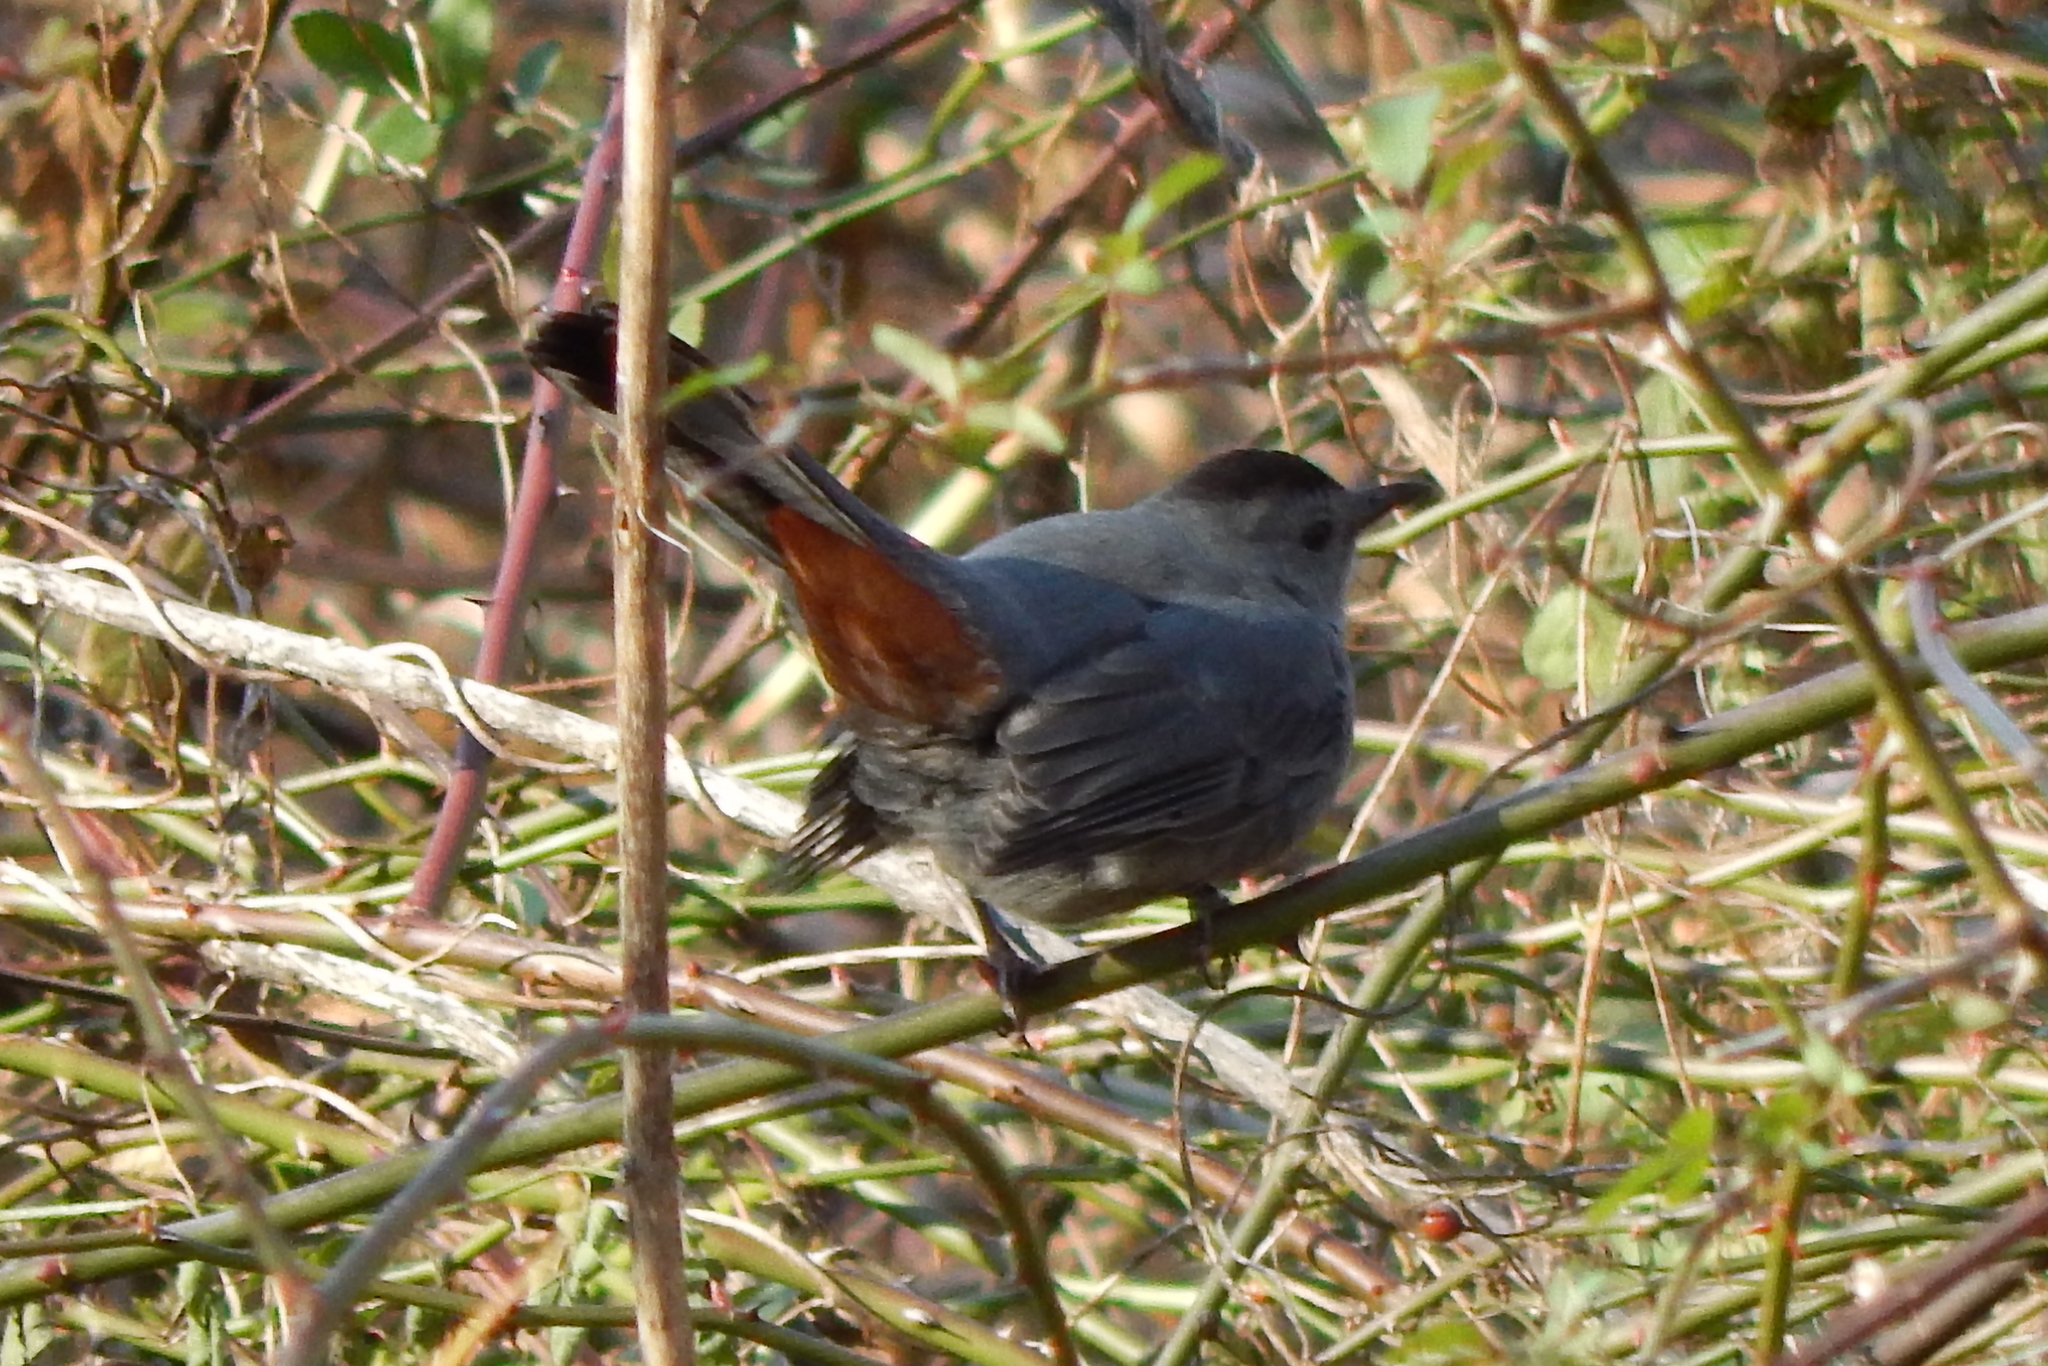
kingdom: Animalia
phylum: Chordata
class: Aves
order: Passeriformes
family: Mimidae
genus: Dumetella
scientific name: Dumetella carolinensis
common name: Gray catbird
